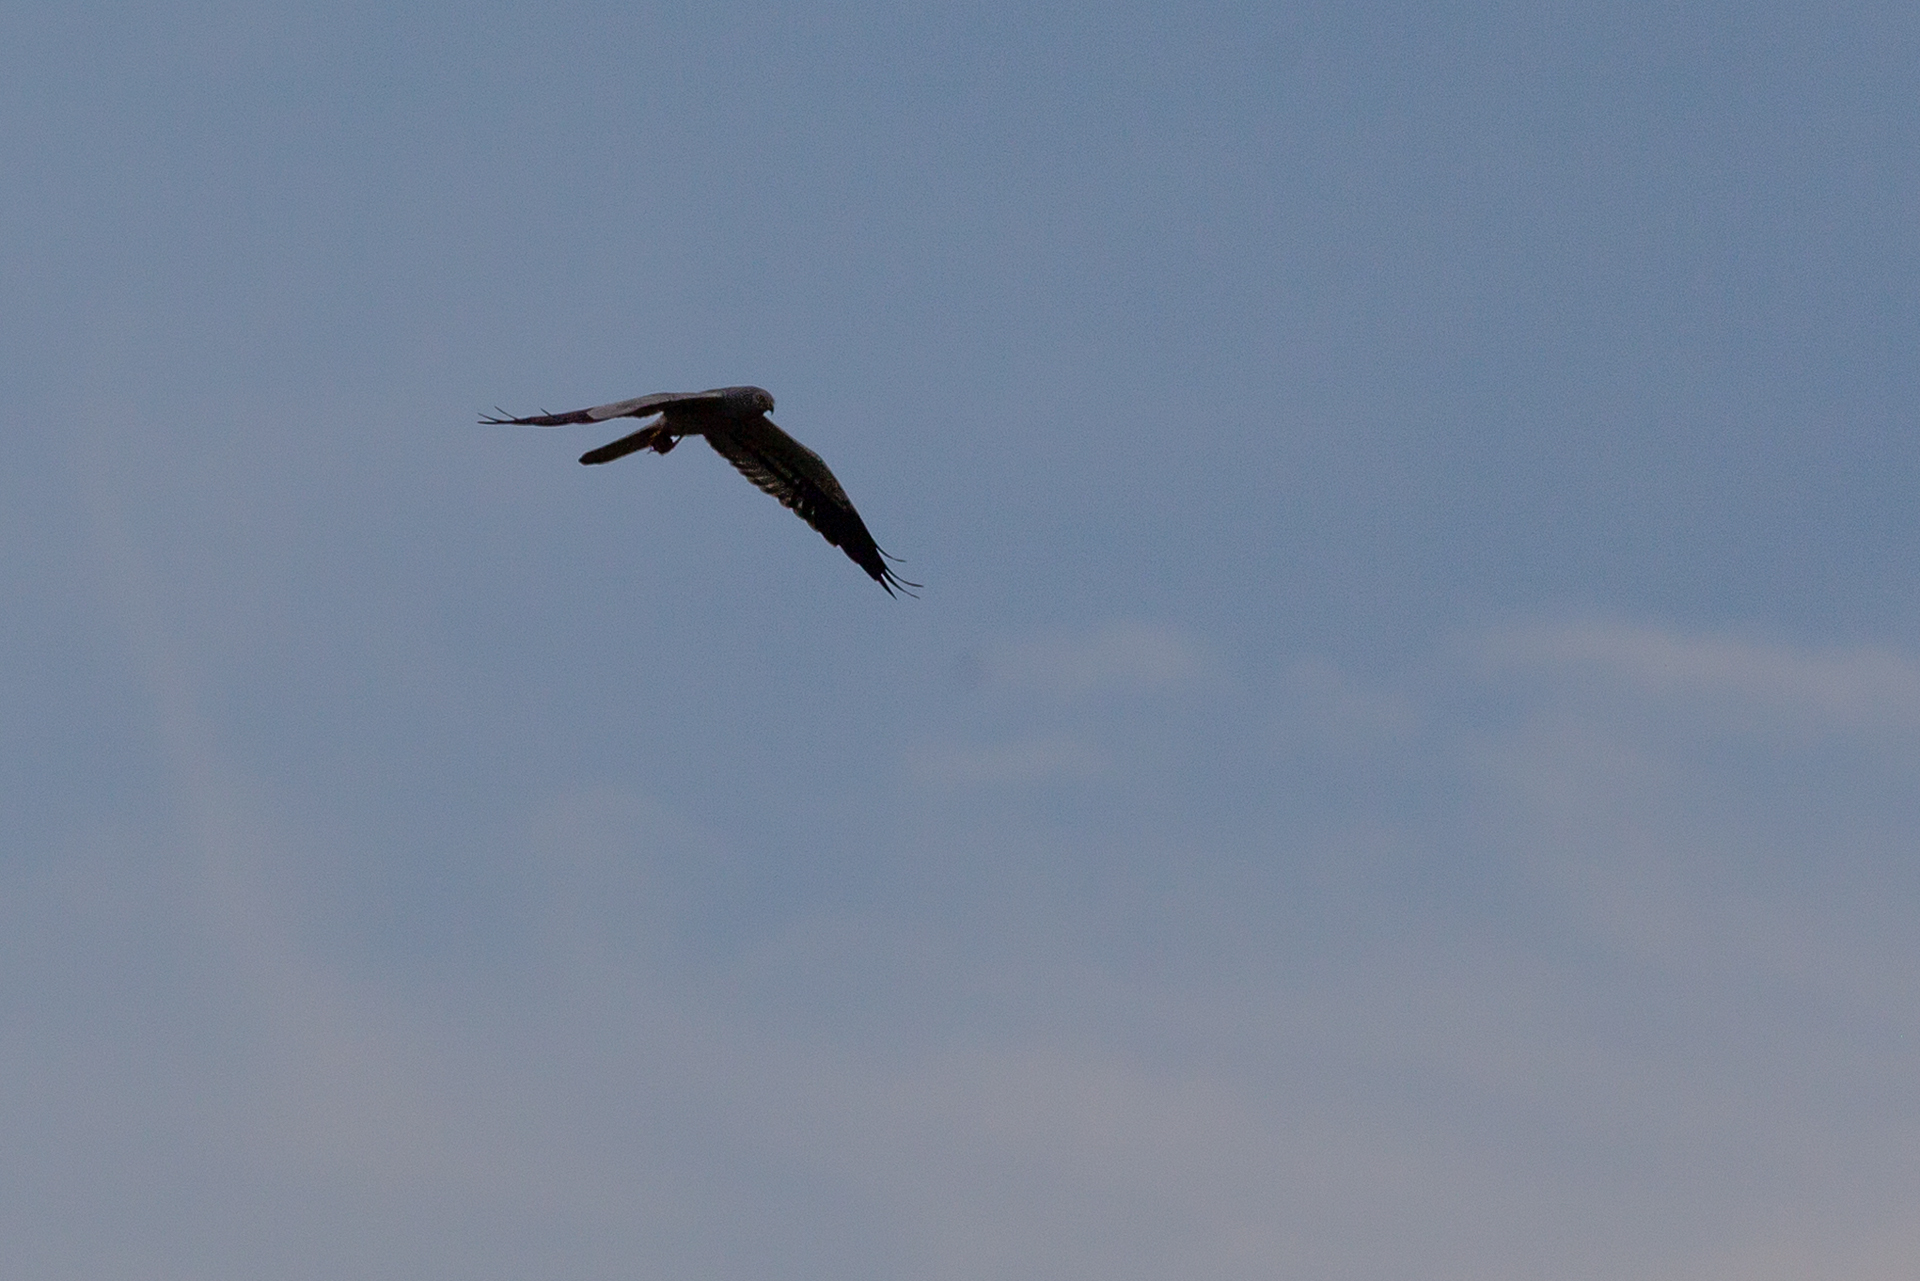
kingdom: Animalia
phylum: Chordata
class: Aves
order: Accipitriformes
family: Accipitridae
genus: Circus
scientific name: Circus pygargus
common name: Montagu's harrier
